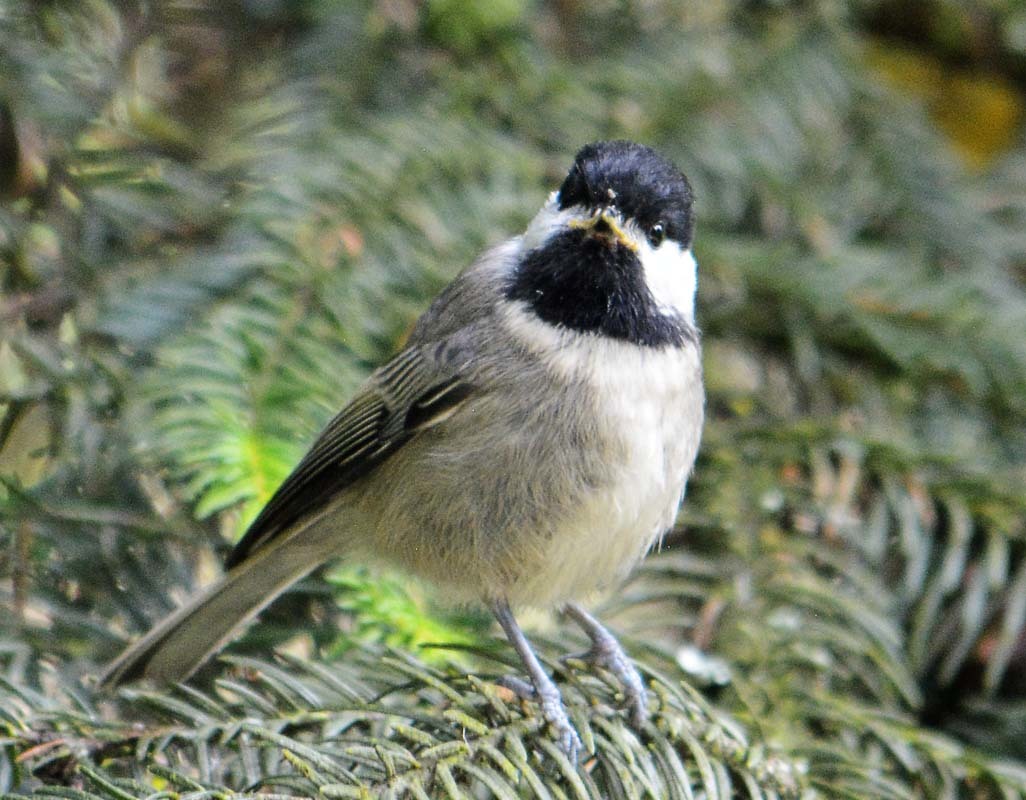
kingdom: Animalia
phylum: Chordata
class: Aves
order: Passeriformes
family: Paridae
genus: Poecile
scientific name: Poecile sclateri
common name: Mexican chickadee
